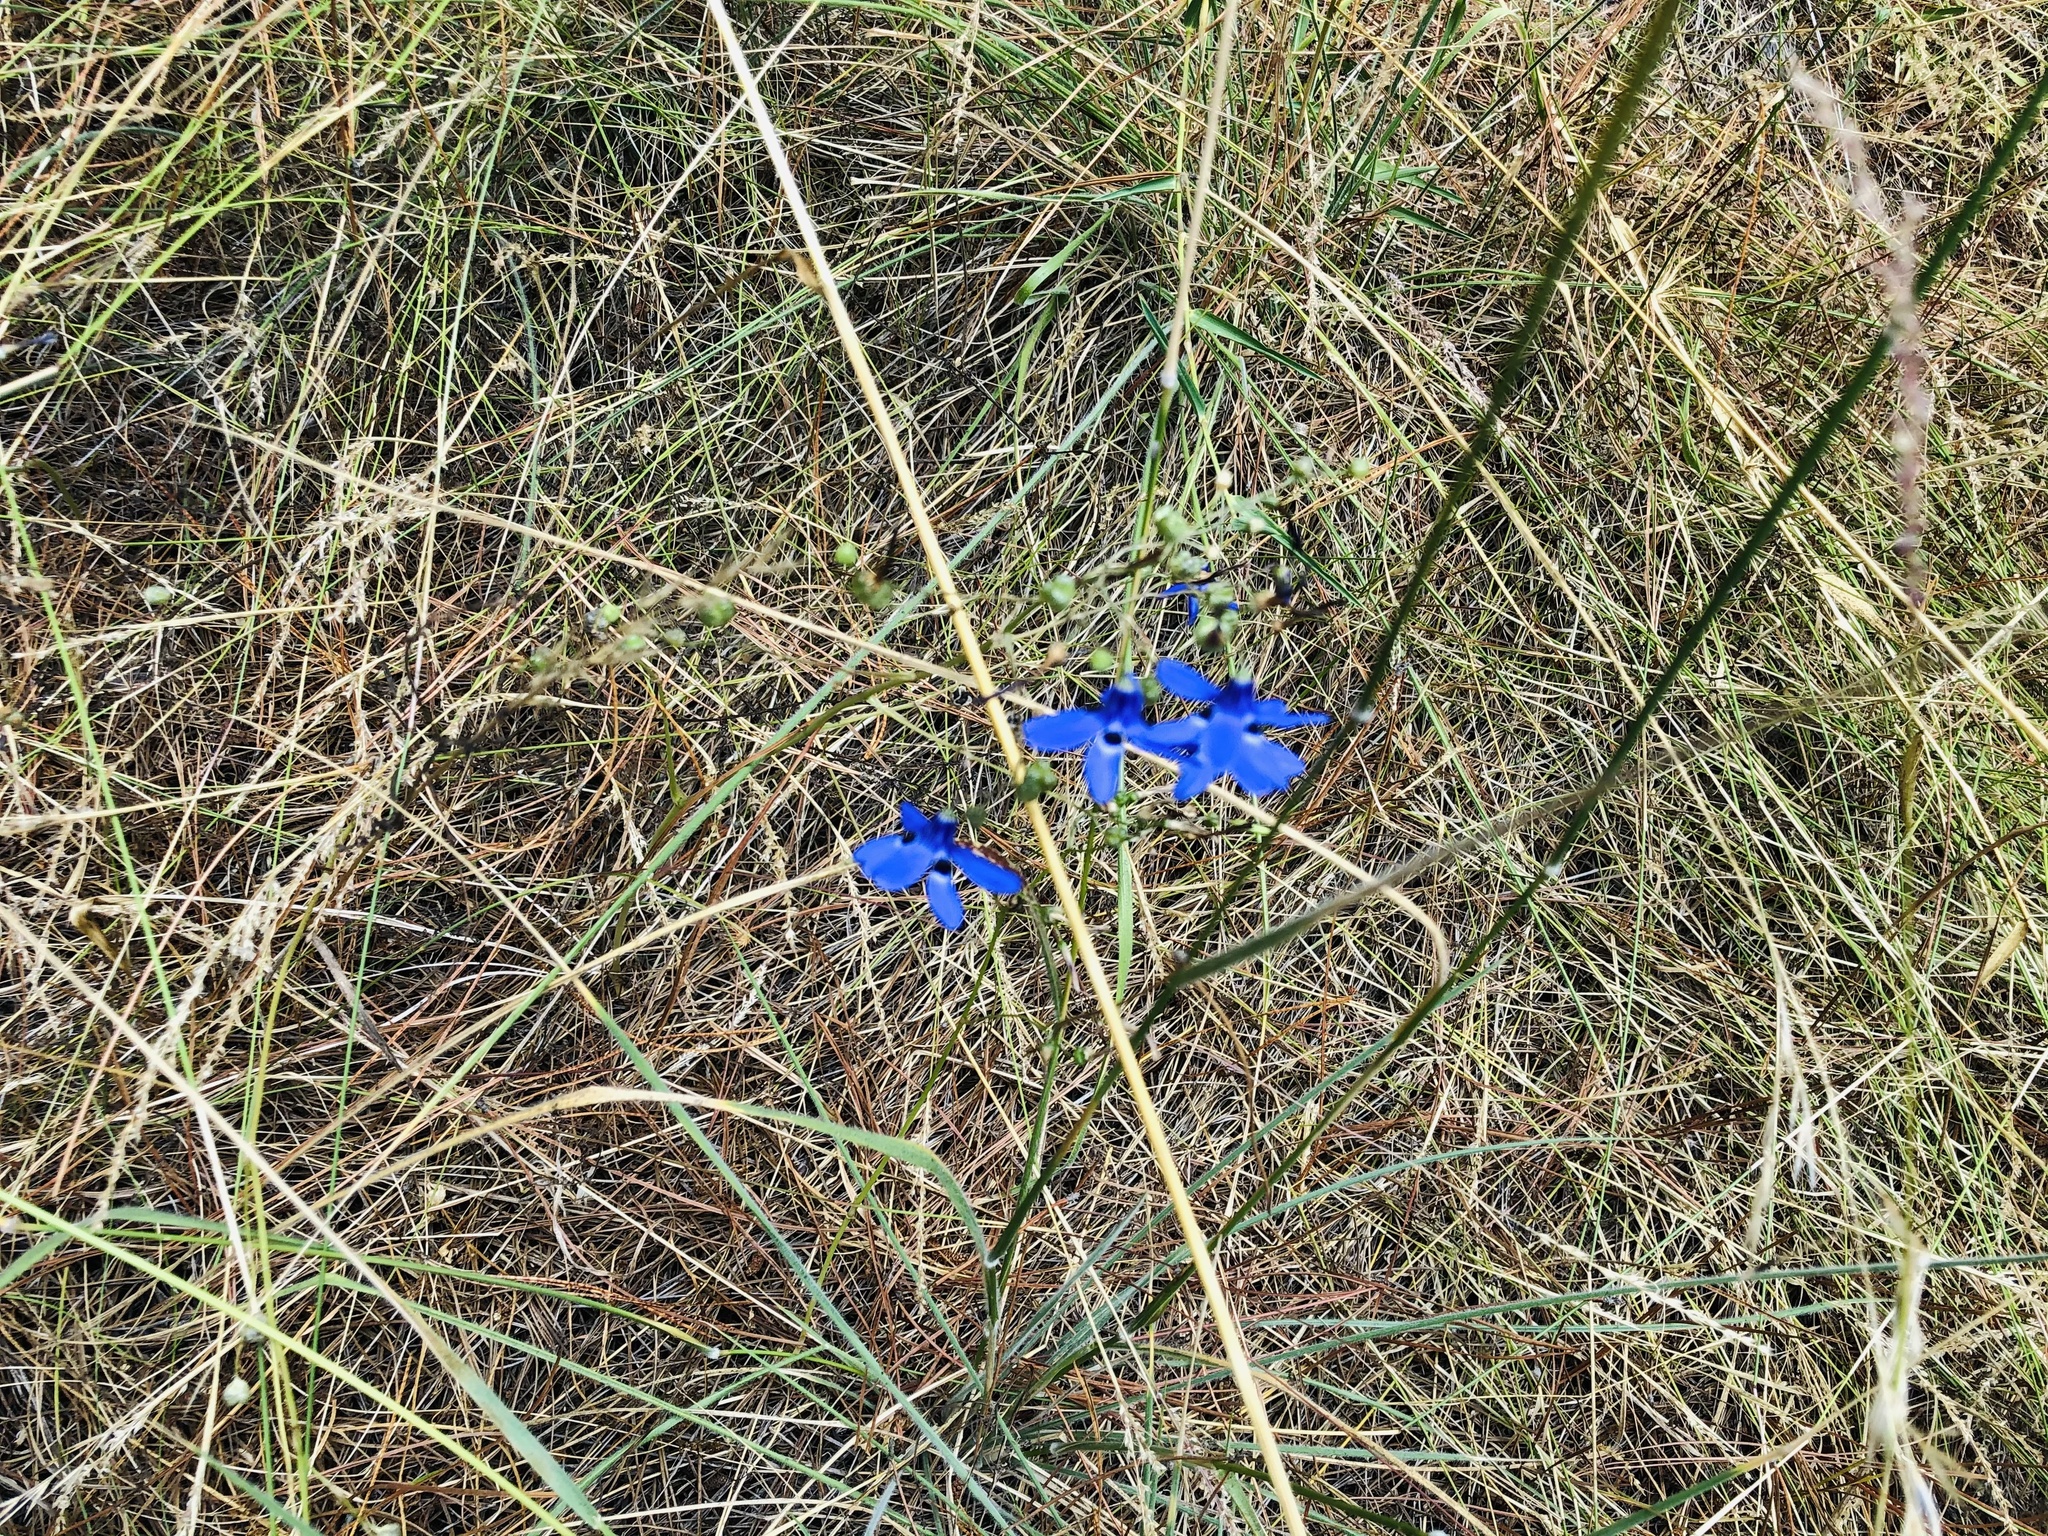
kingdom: Plantae
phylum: Tracheophyta
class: Liliopsida
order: Asparagales
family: Tecophilaeaceae
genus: Conanthera
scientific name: Conanthera trimaculata
